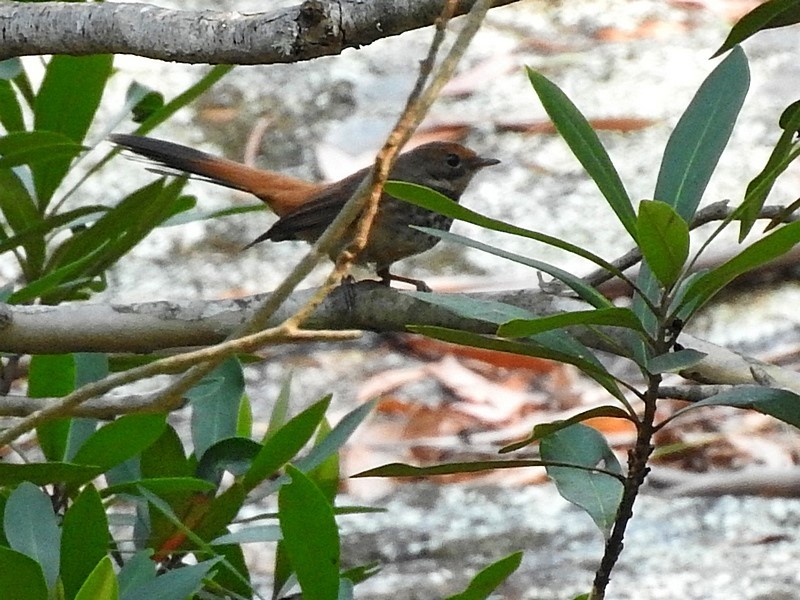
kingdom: Animalia
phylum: Chordata
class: Aves
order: Passeriformes
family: Rhipiduridae
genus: Rhipidura
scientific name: Rhipidura rufifrons
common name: Rufous fantail
